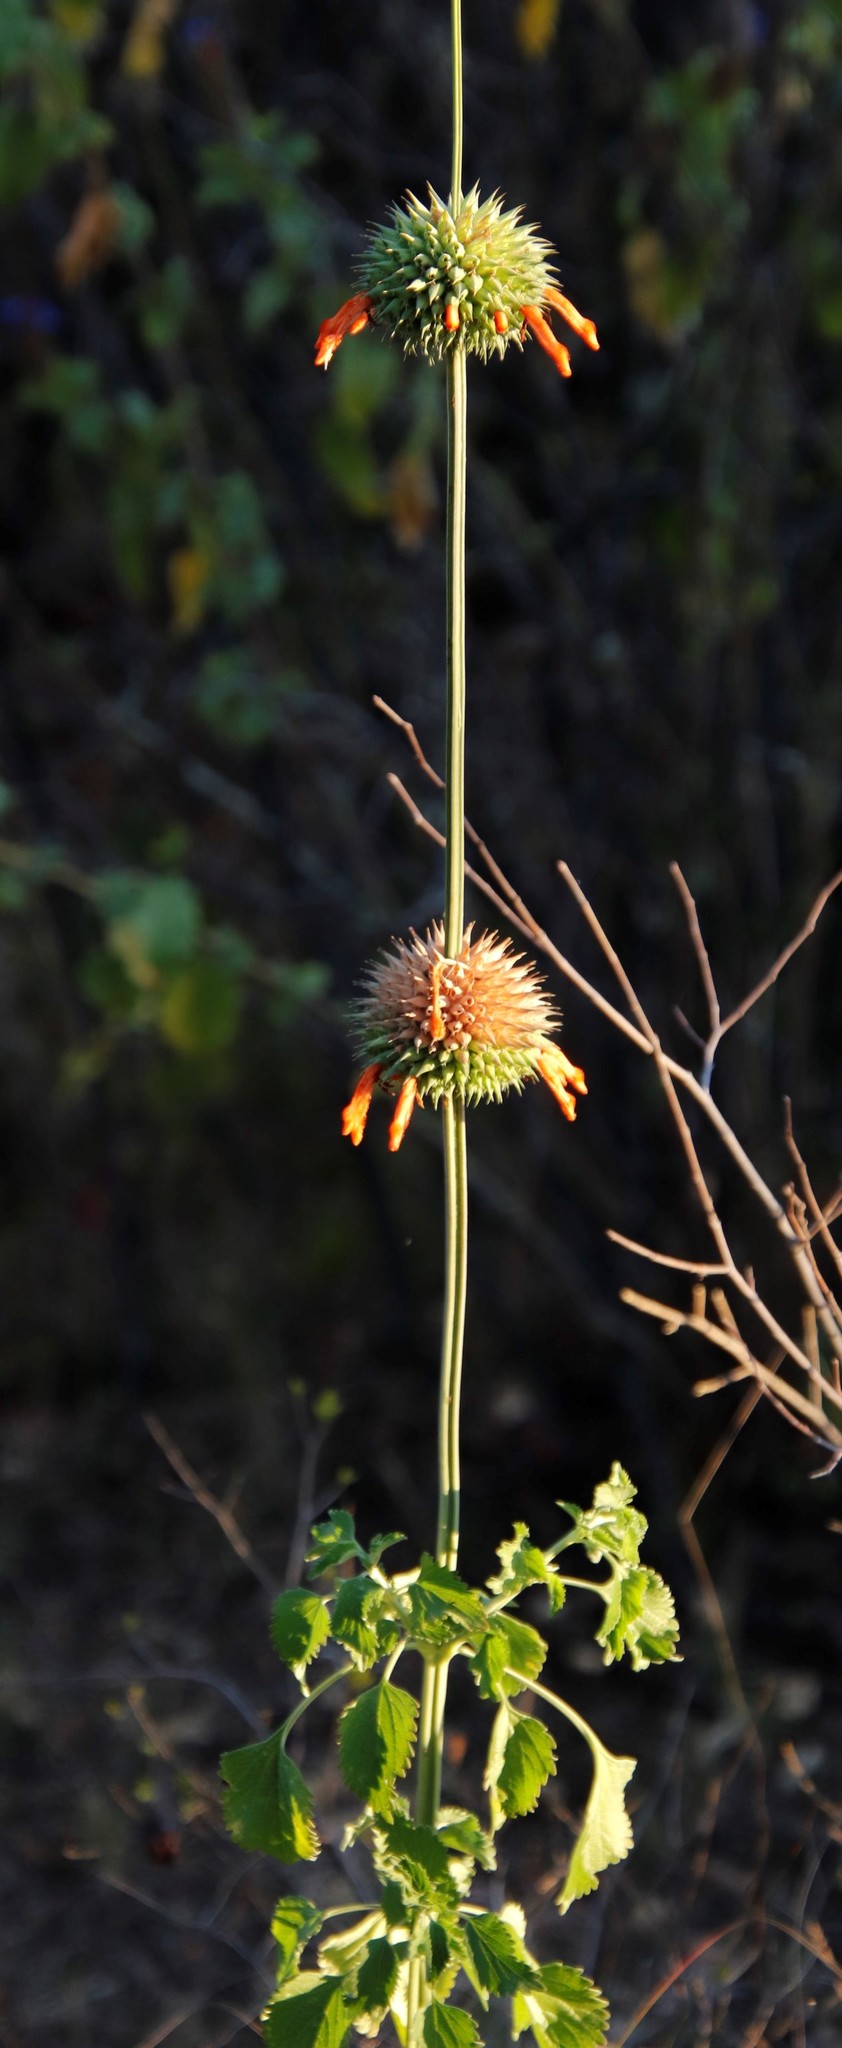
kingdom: Plantae
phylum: Tracheophyta
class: Magnoliopsida
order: Lamiales
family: Lamiaceae
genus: Leonotis
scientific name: Leonotis nepetifolia
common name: Christmas candlestick
